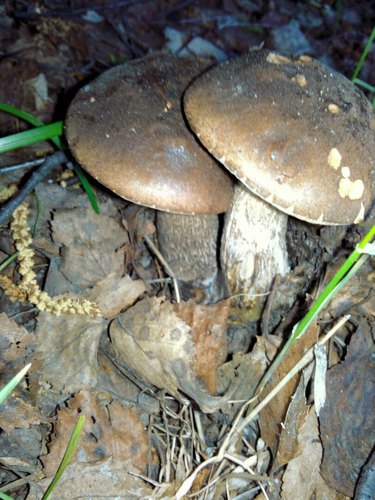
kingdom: Fungi
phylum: Basidiomycota
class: Agaricomycetes
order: Boletales
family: Boletaceae
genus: Leccinum
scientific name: Leccinum scabrum
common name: Blushing bolete
